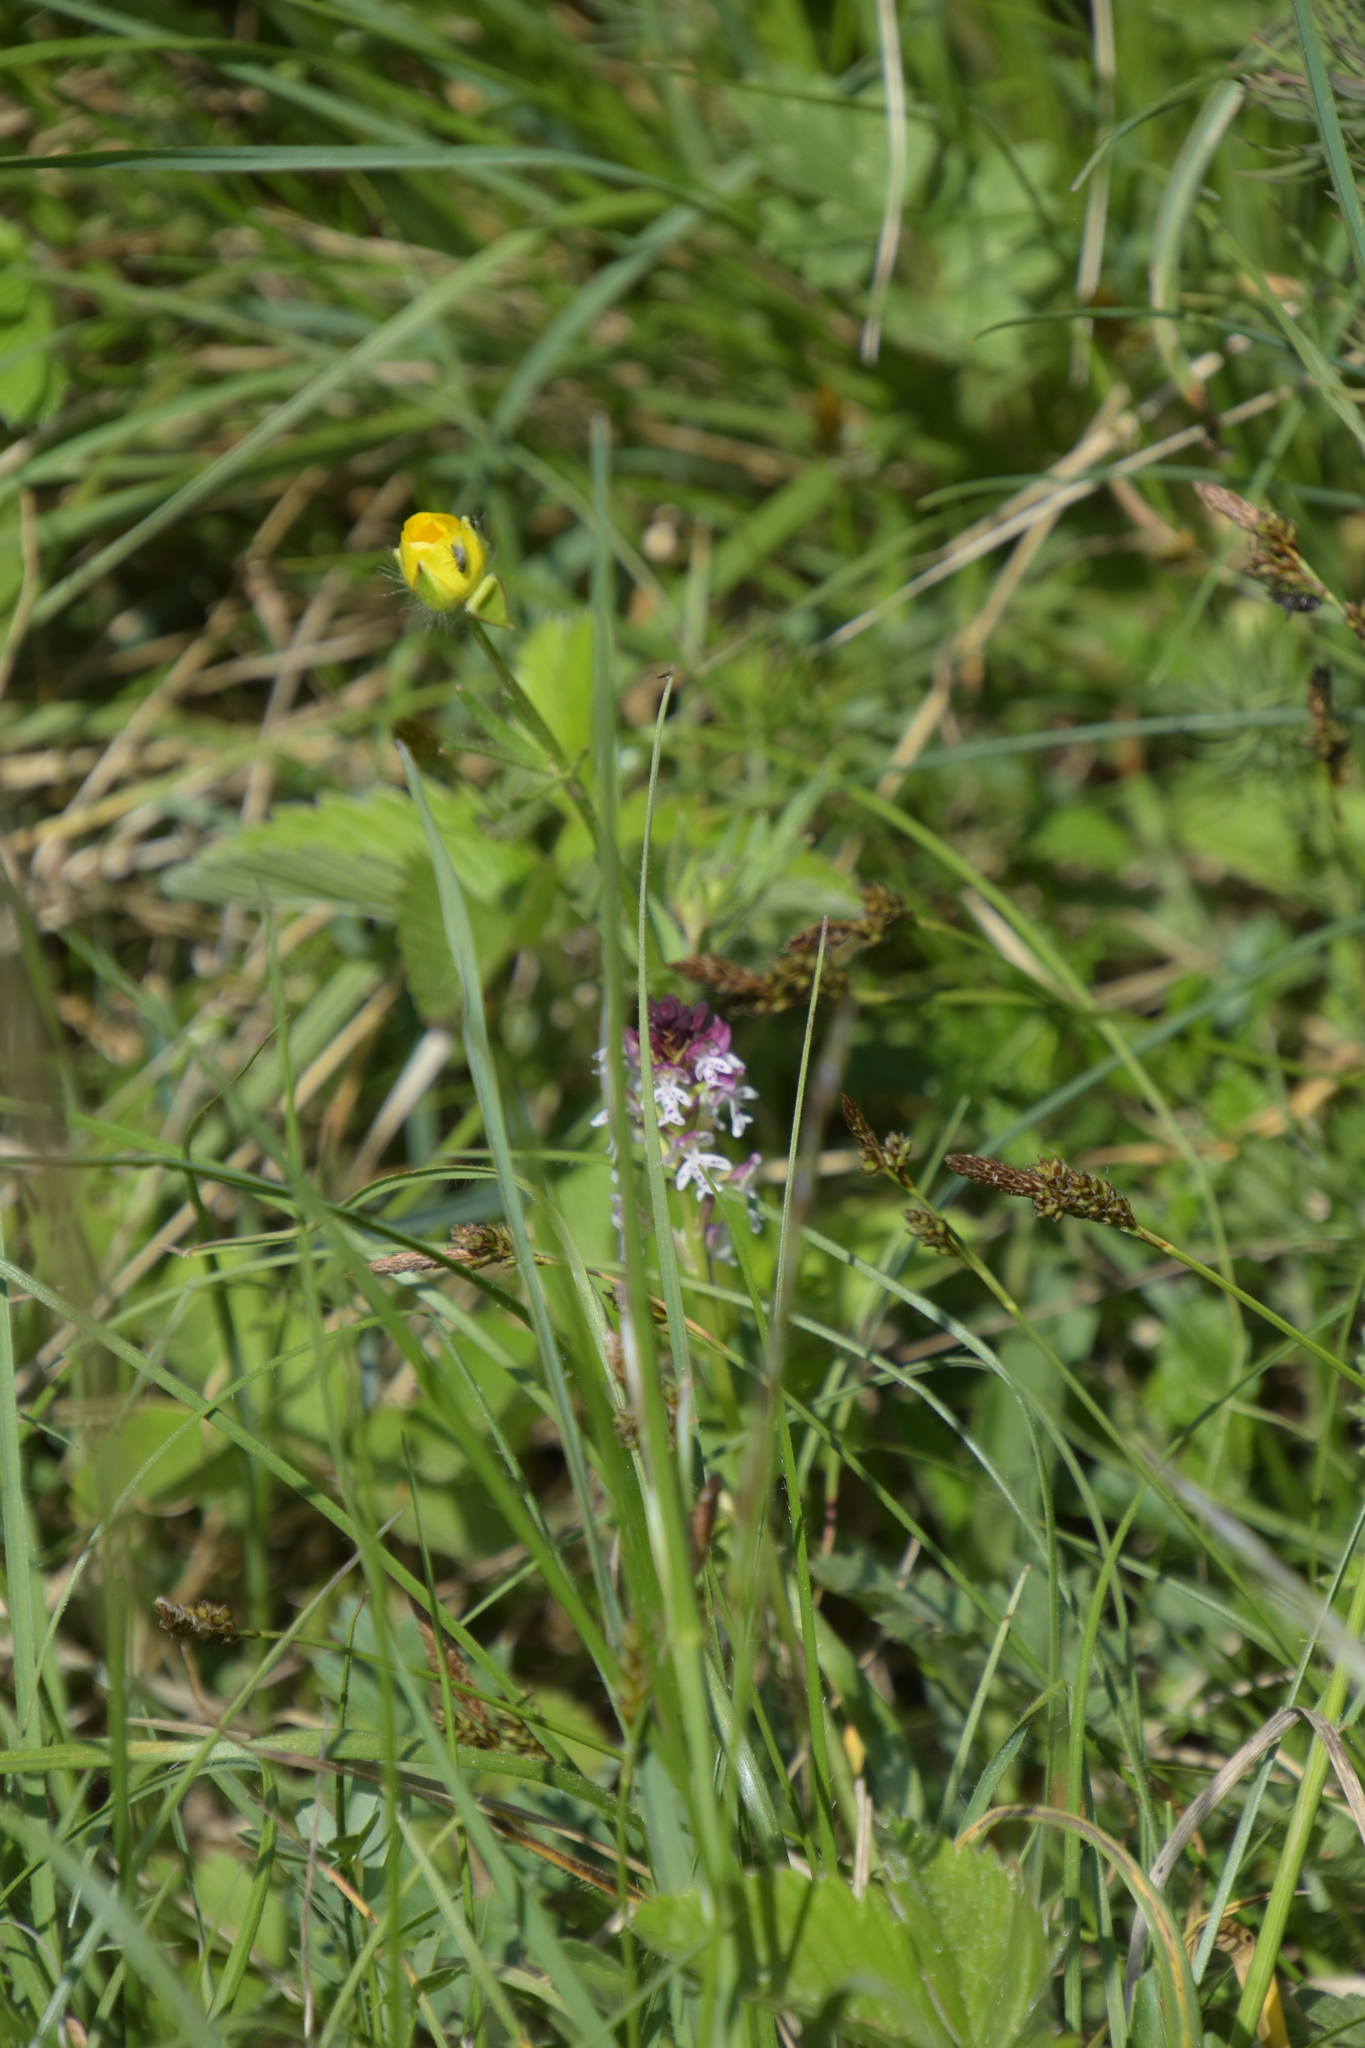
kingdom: Plantae
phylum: Tracheophyta
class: Liliopsida
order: Asparagales
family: Orchidaceae
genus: Neotinea
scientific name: Neotinea ustulata
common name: Burnt orchid
